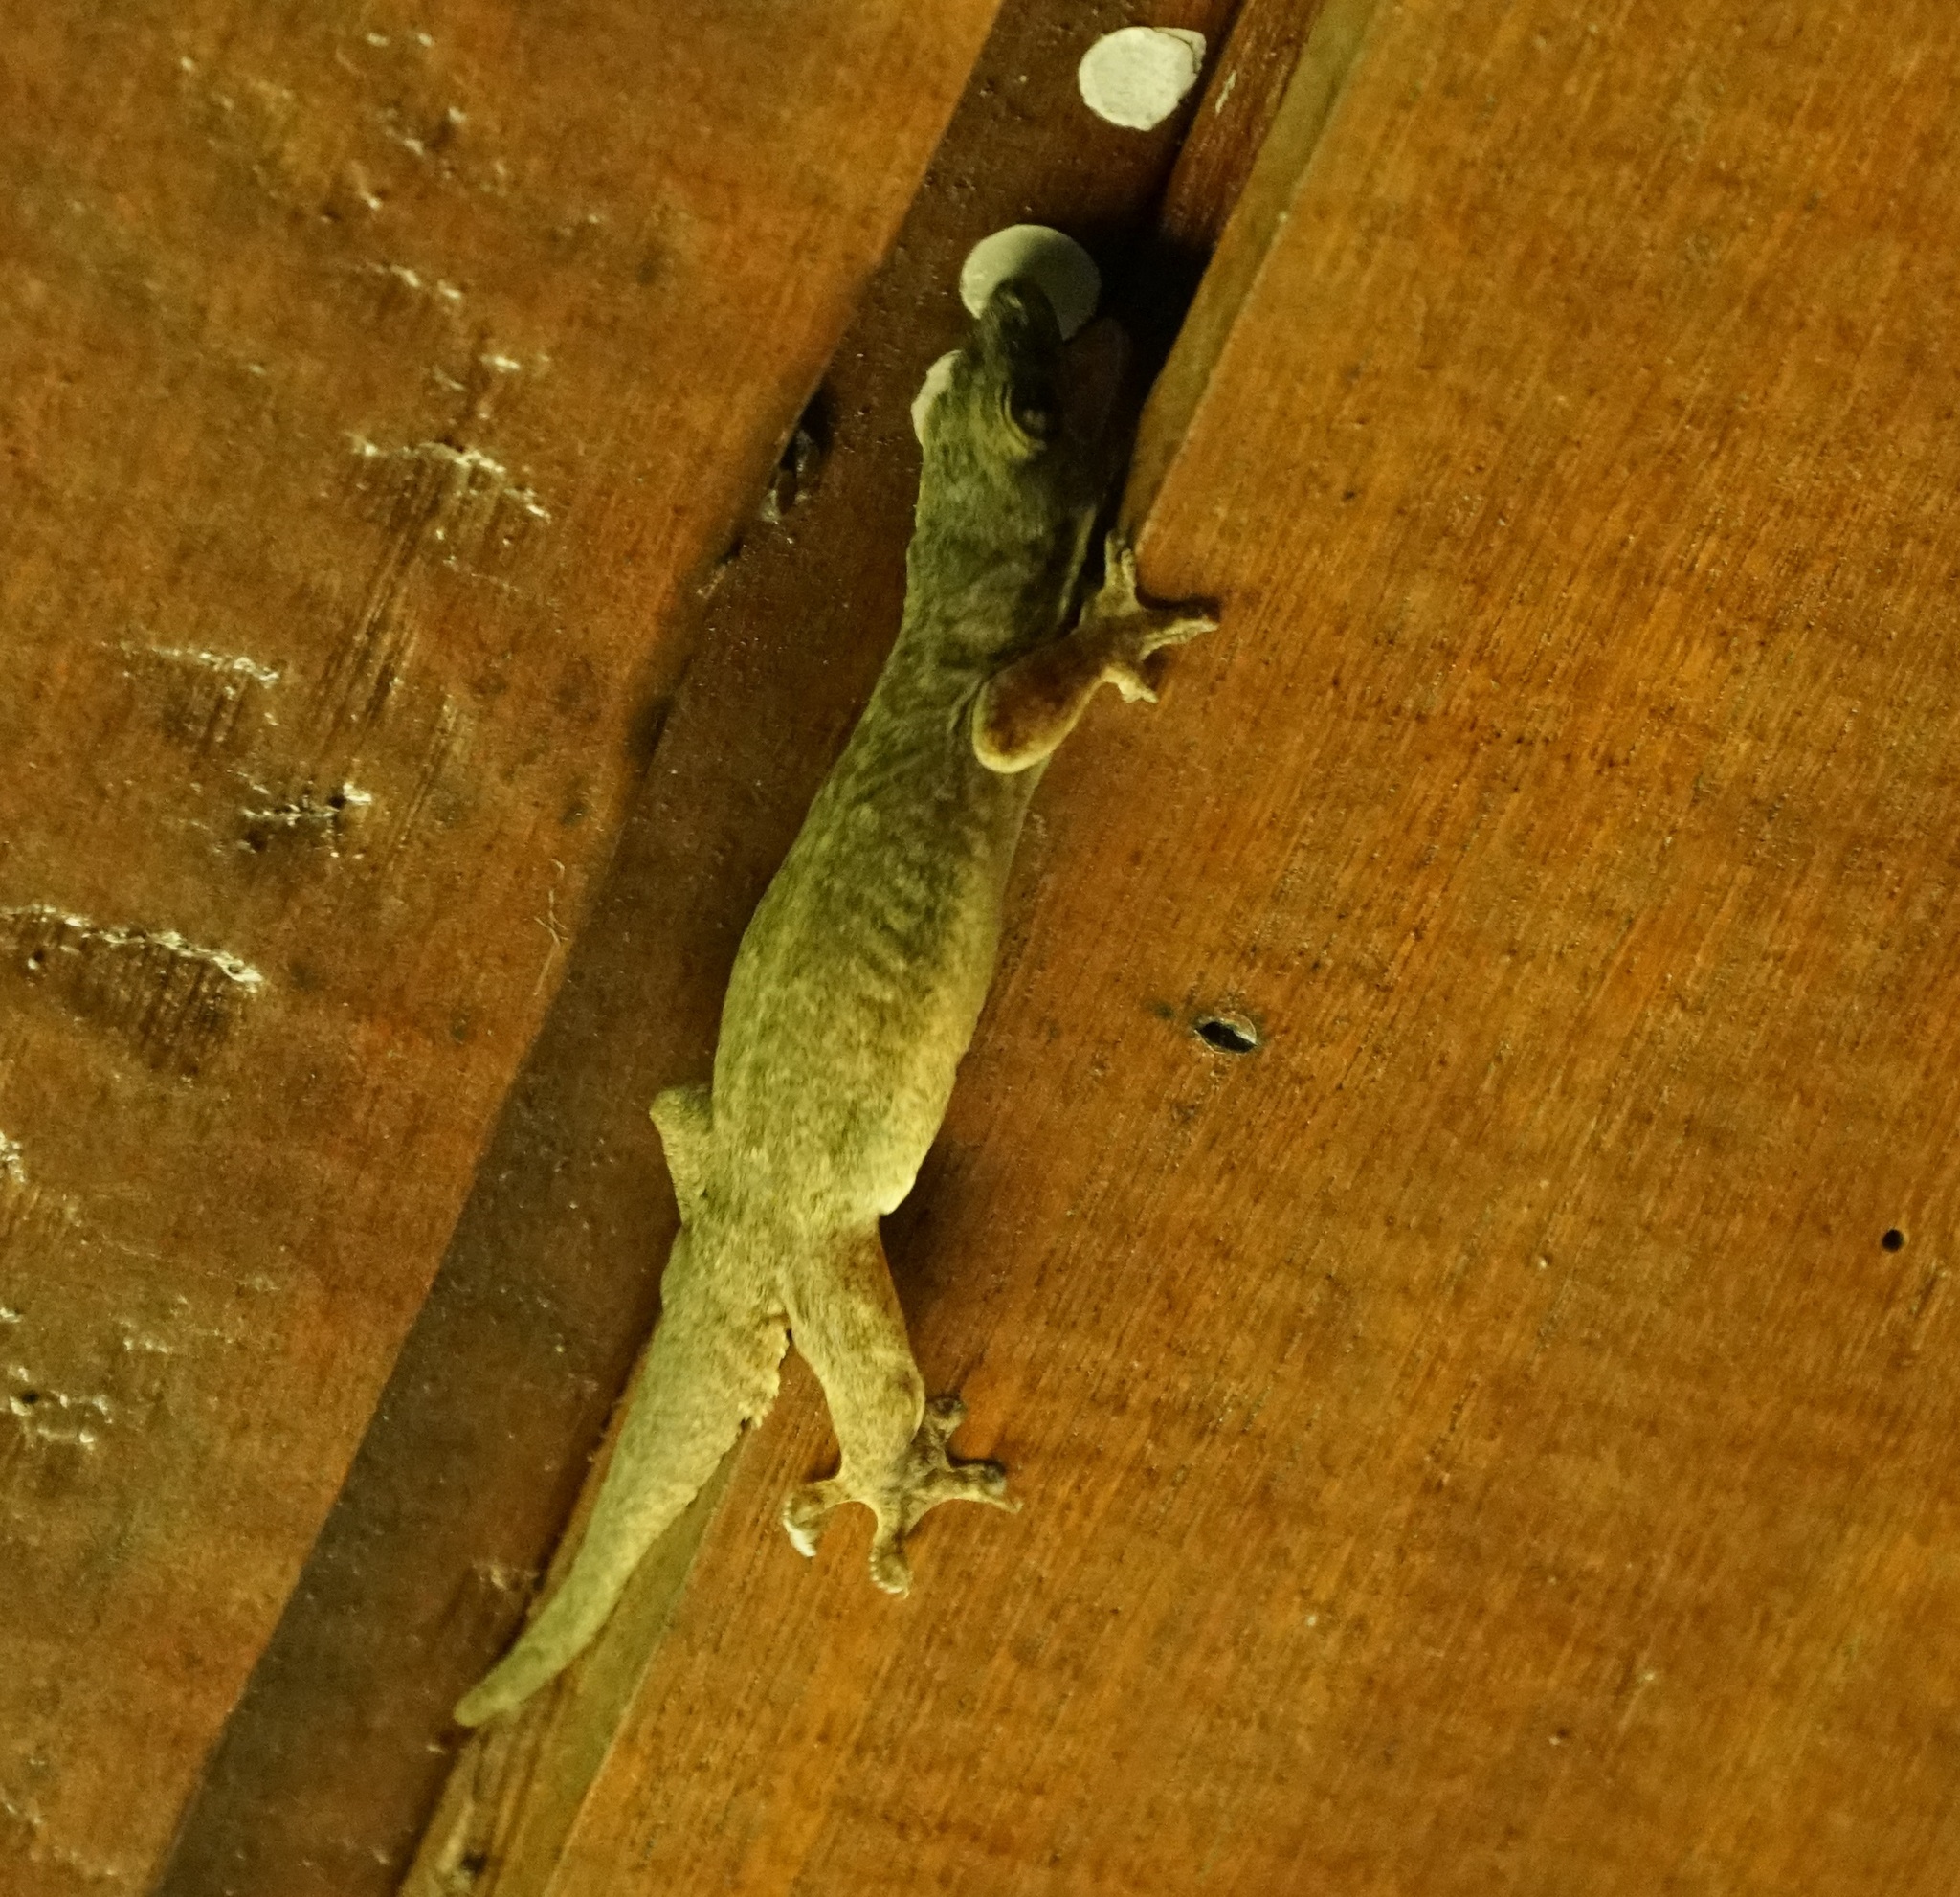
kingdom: Animalia
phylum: Chordata
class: Squamata
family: Gekkonidae
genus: Hemidactylus
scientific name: Hemidactylus platyurus
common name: Flat-tailed house gecko
